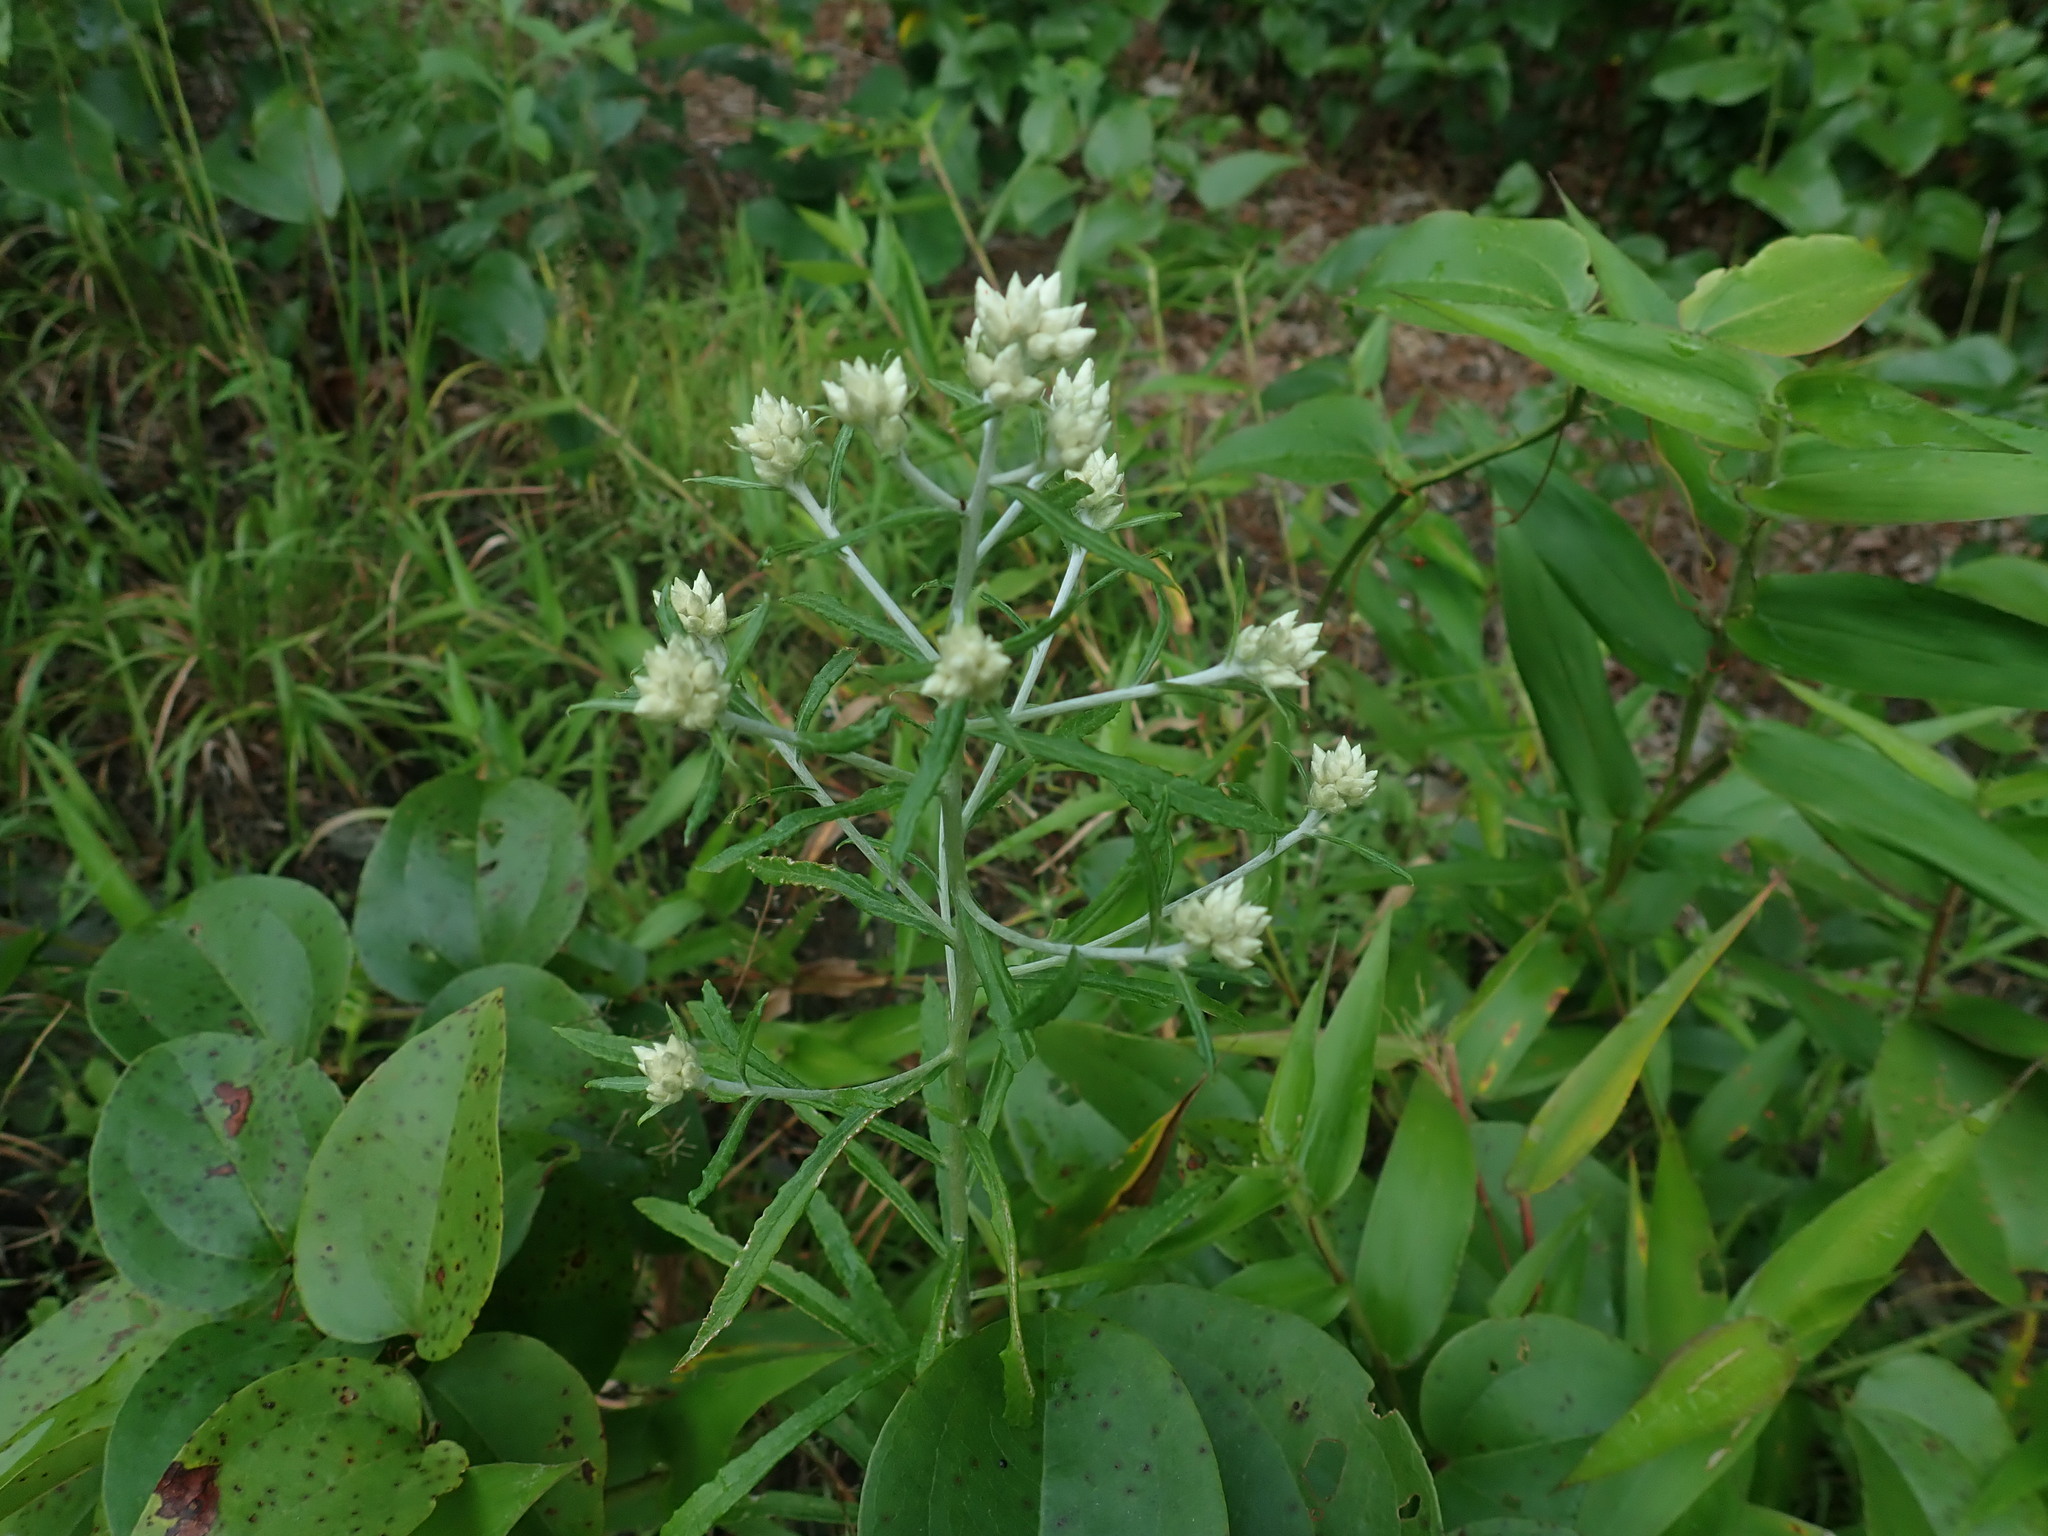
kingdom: Plantae
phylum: Tracheophyta
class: Magnoliopsida
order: Asterales
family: Asteraceae
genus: Pseudognaphalium
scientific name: Pseudognaphalium obtusifolium
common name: Eastern rabbit-tobacco
